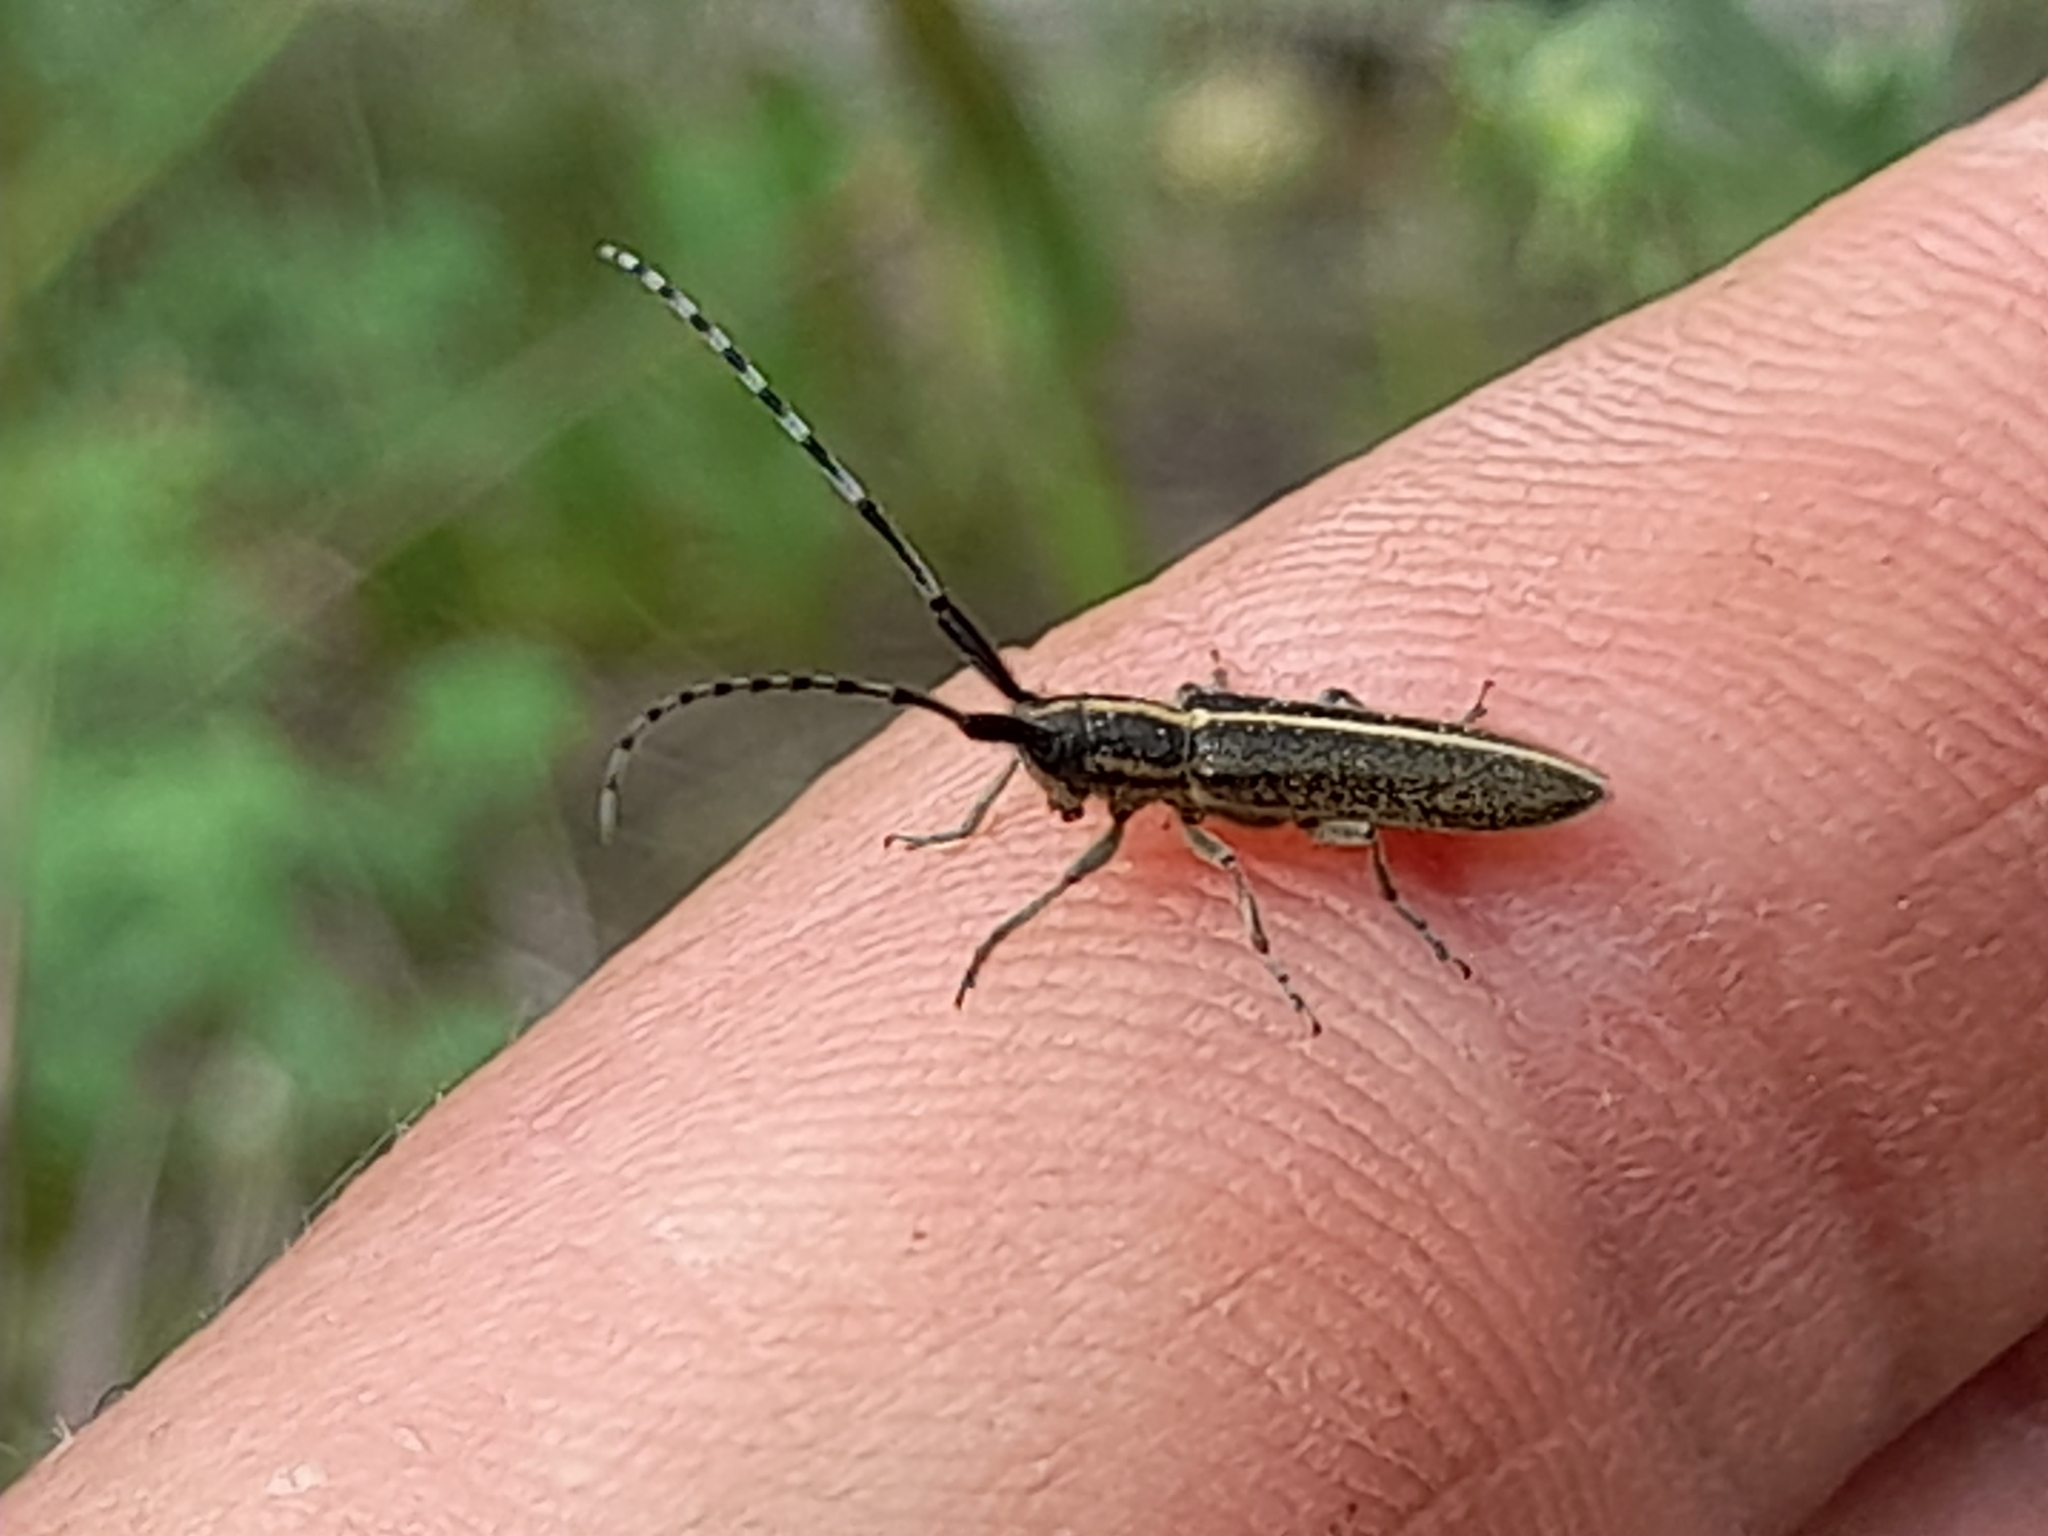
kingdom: Animalia
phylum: Arthropoda
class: Insecta
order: Coleoptera
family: Cerambycidae
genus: Agapanthia
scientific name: Agapanthia cardui
